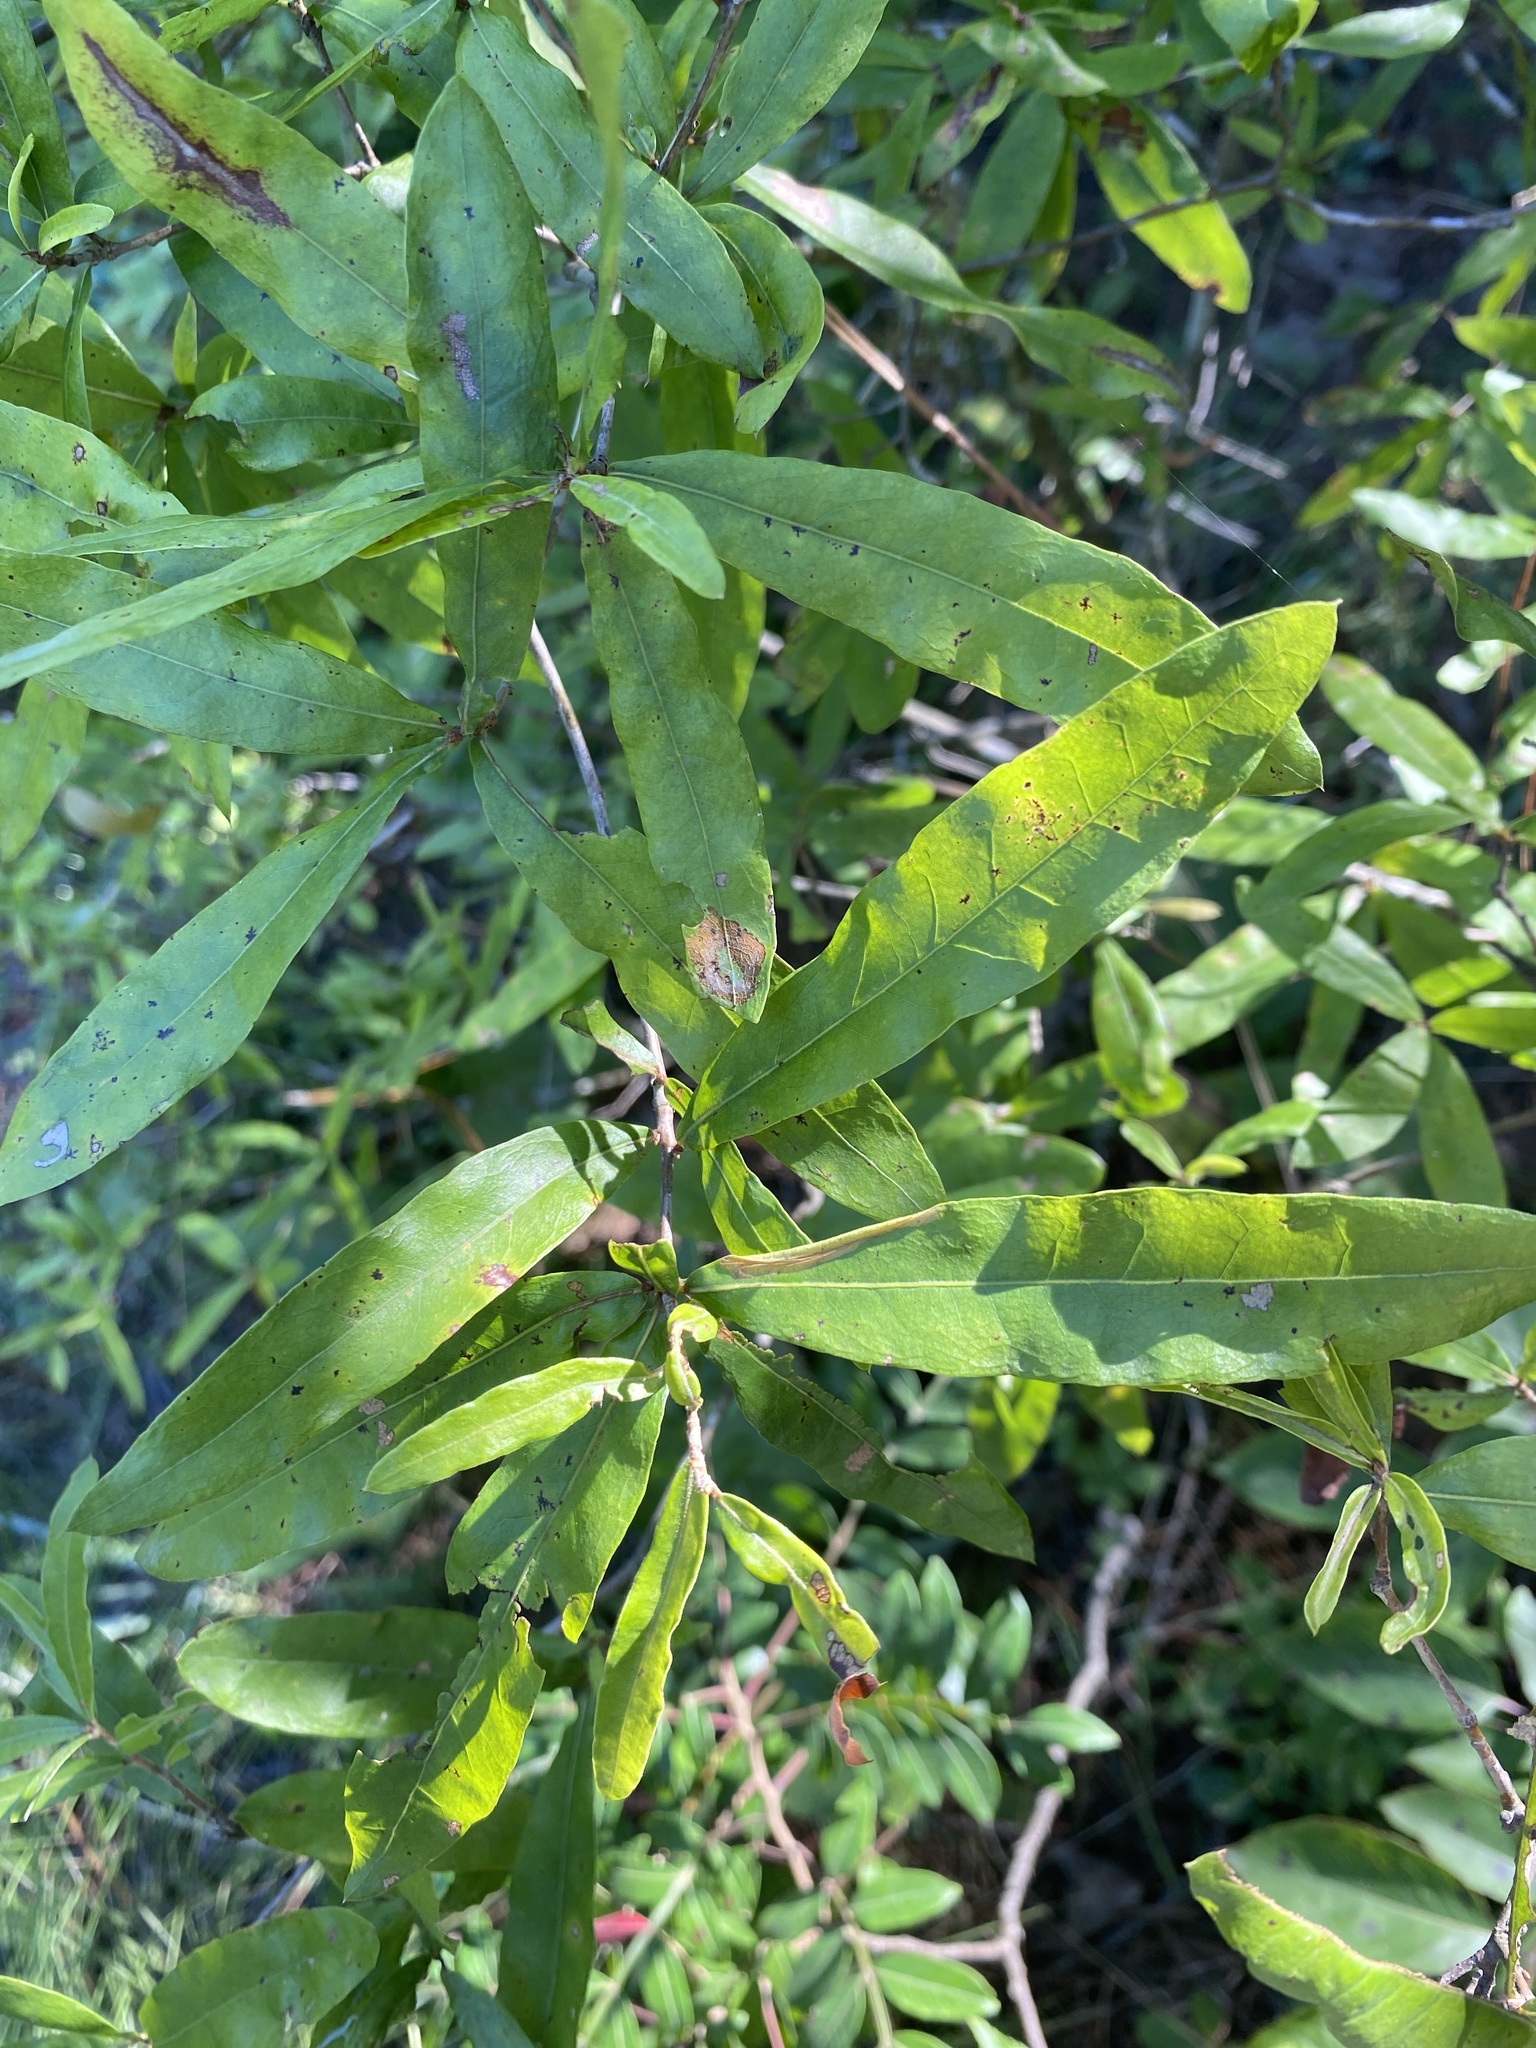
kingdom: Plantae
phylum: Tracheophyta
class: Magnoliopsida
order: Fagales
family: Fagaceae
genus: Quercus
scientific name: Quercus phellos
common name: Willow oak
